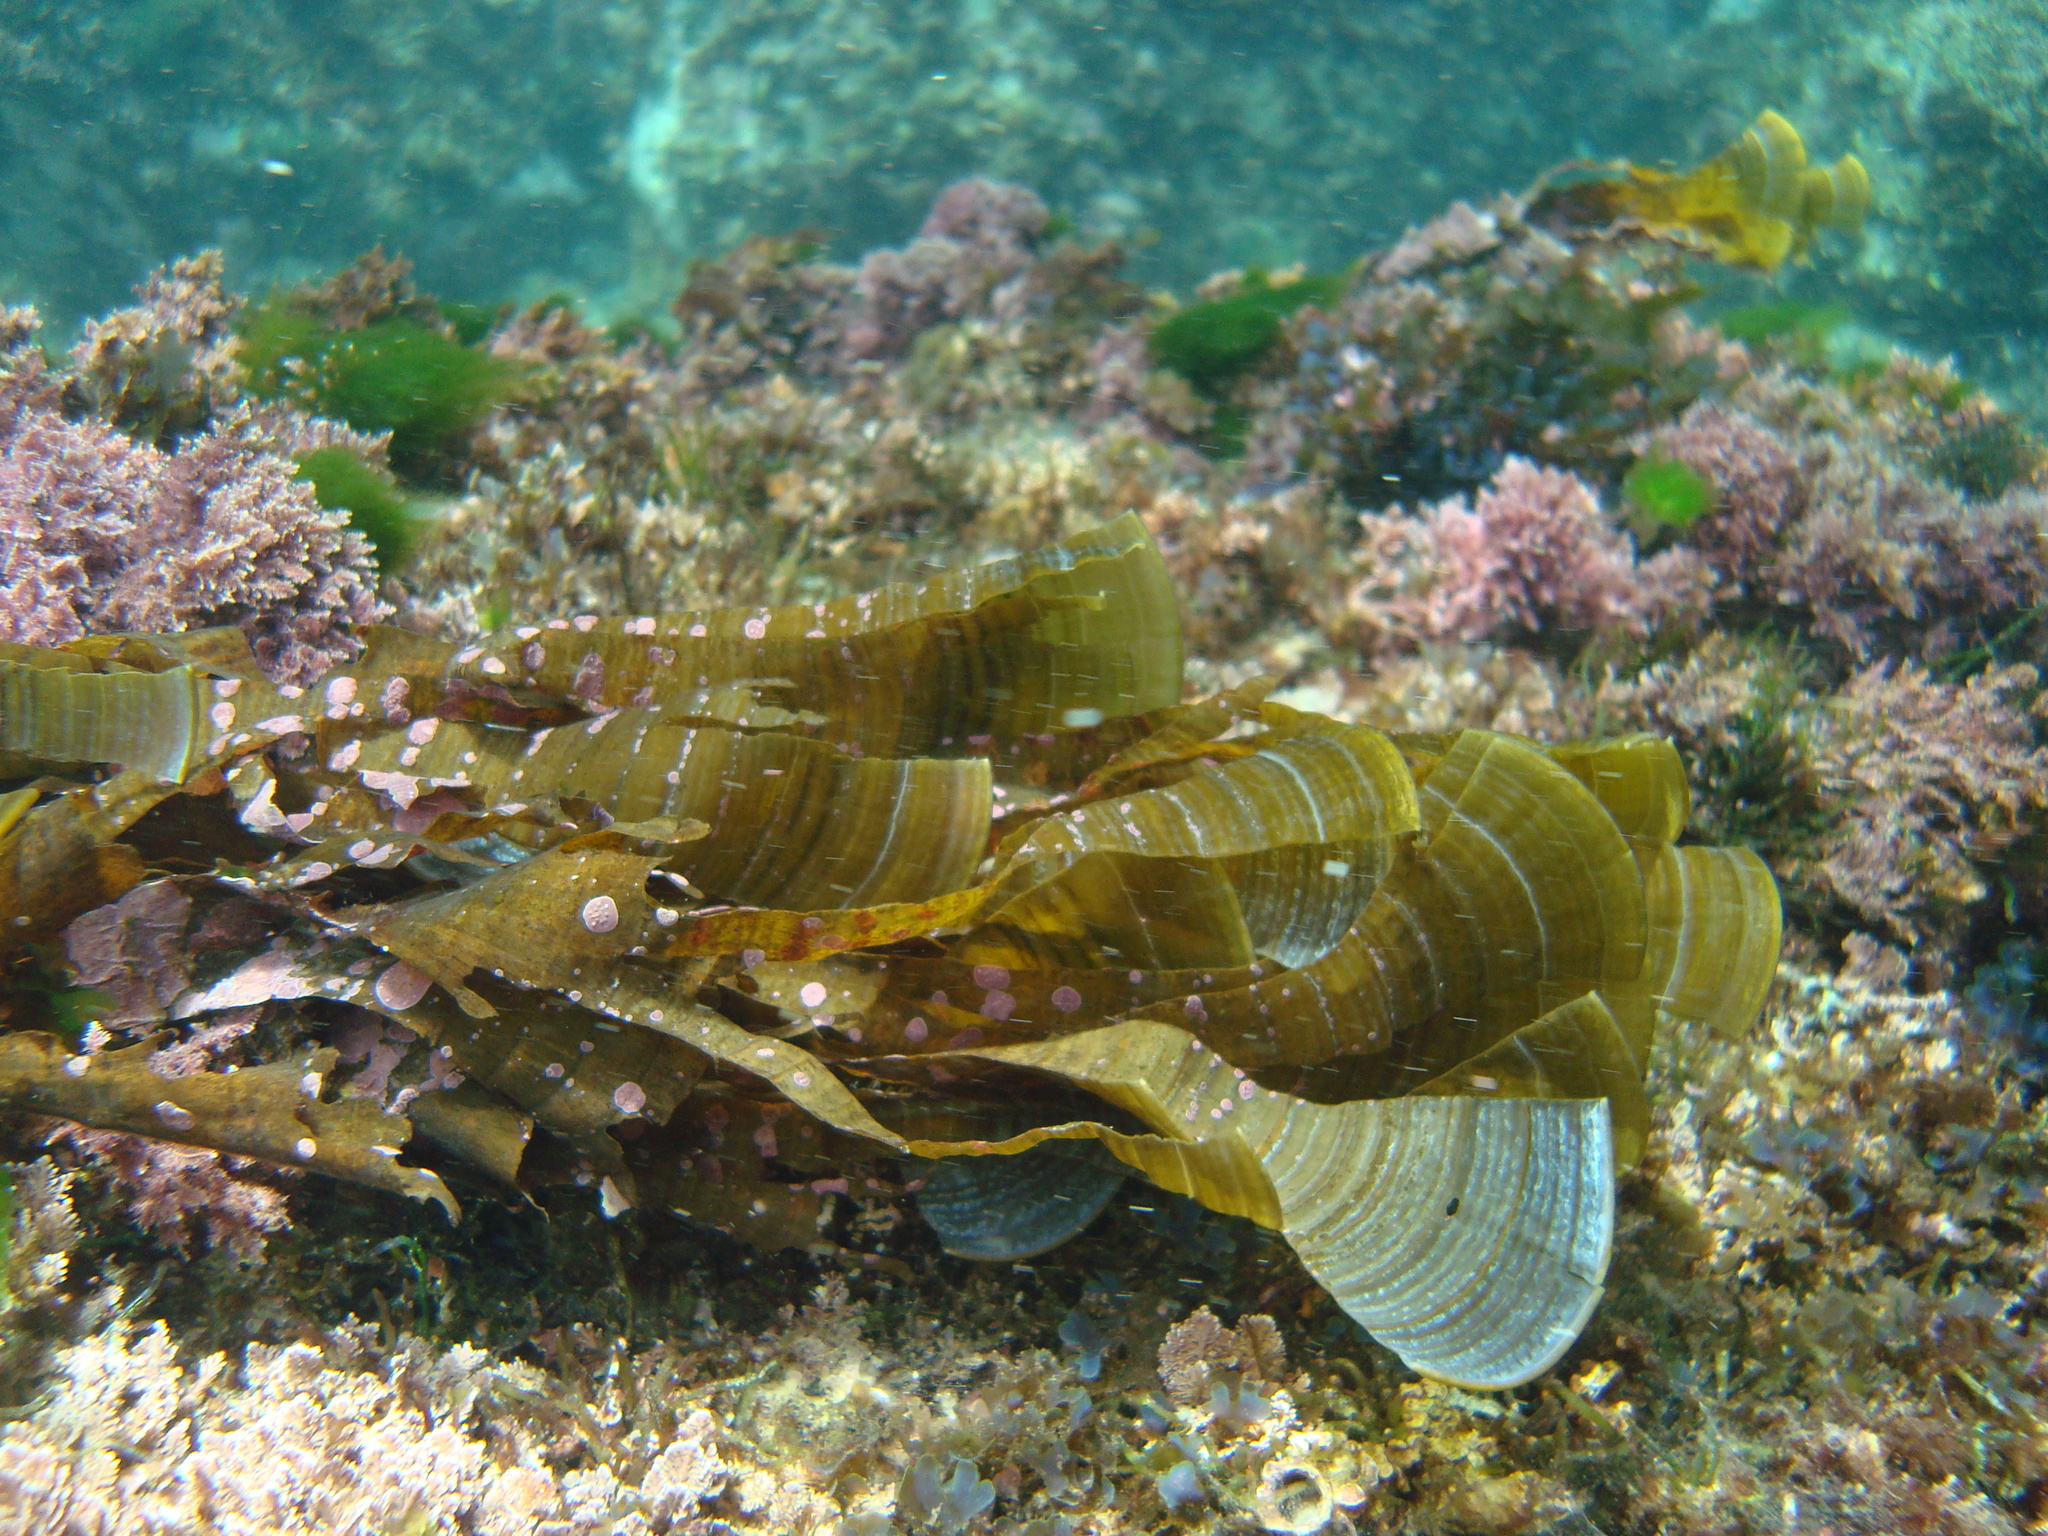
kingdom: Chromista
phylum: Ochrophyta
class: Phaeophyceae
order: Dictyotales
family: Dictyotaceae
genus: Padina
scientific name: Padina
